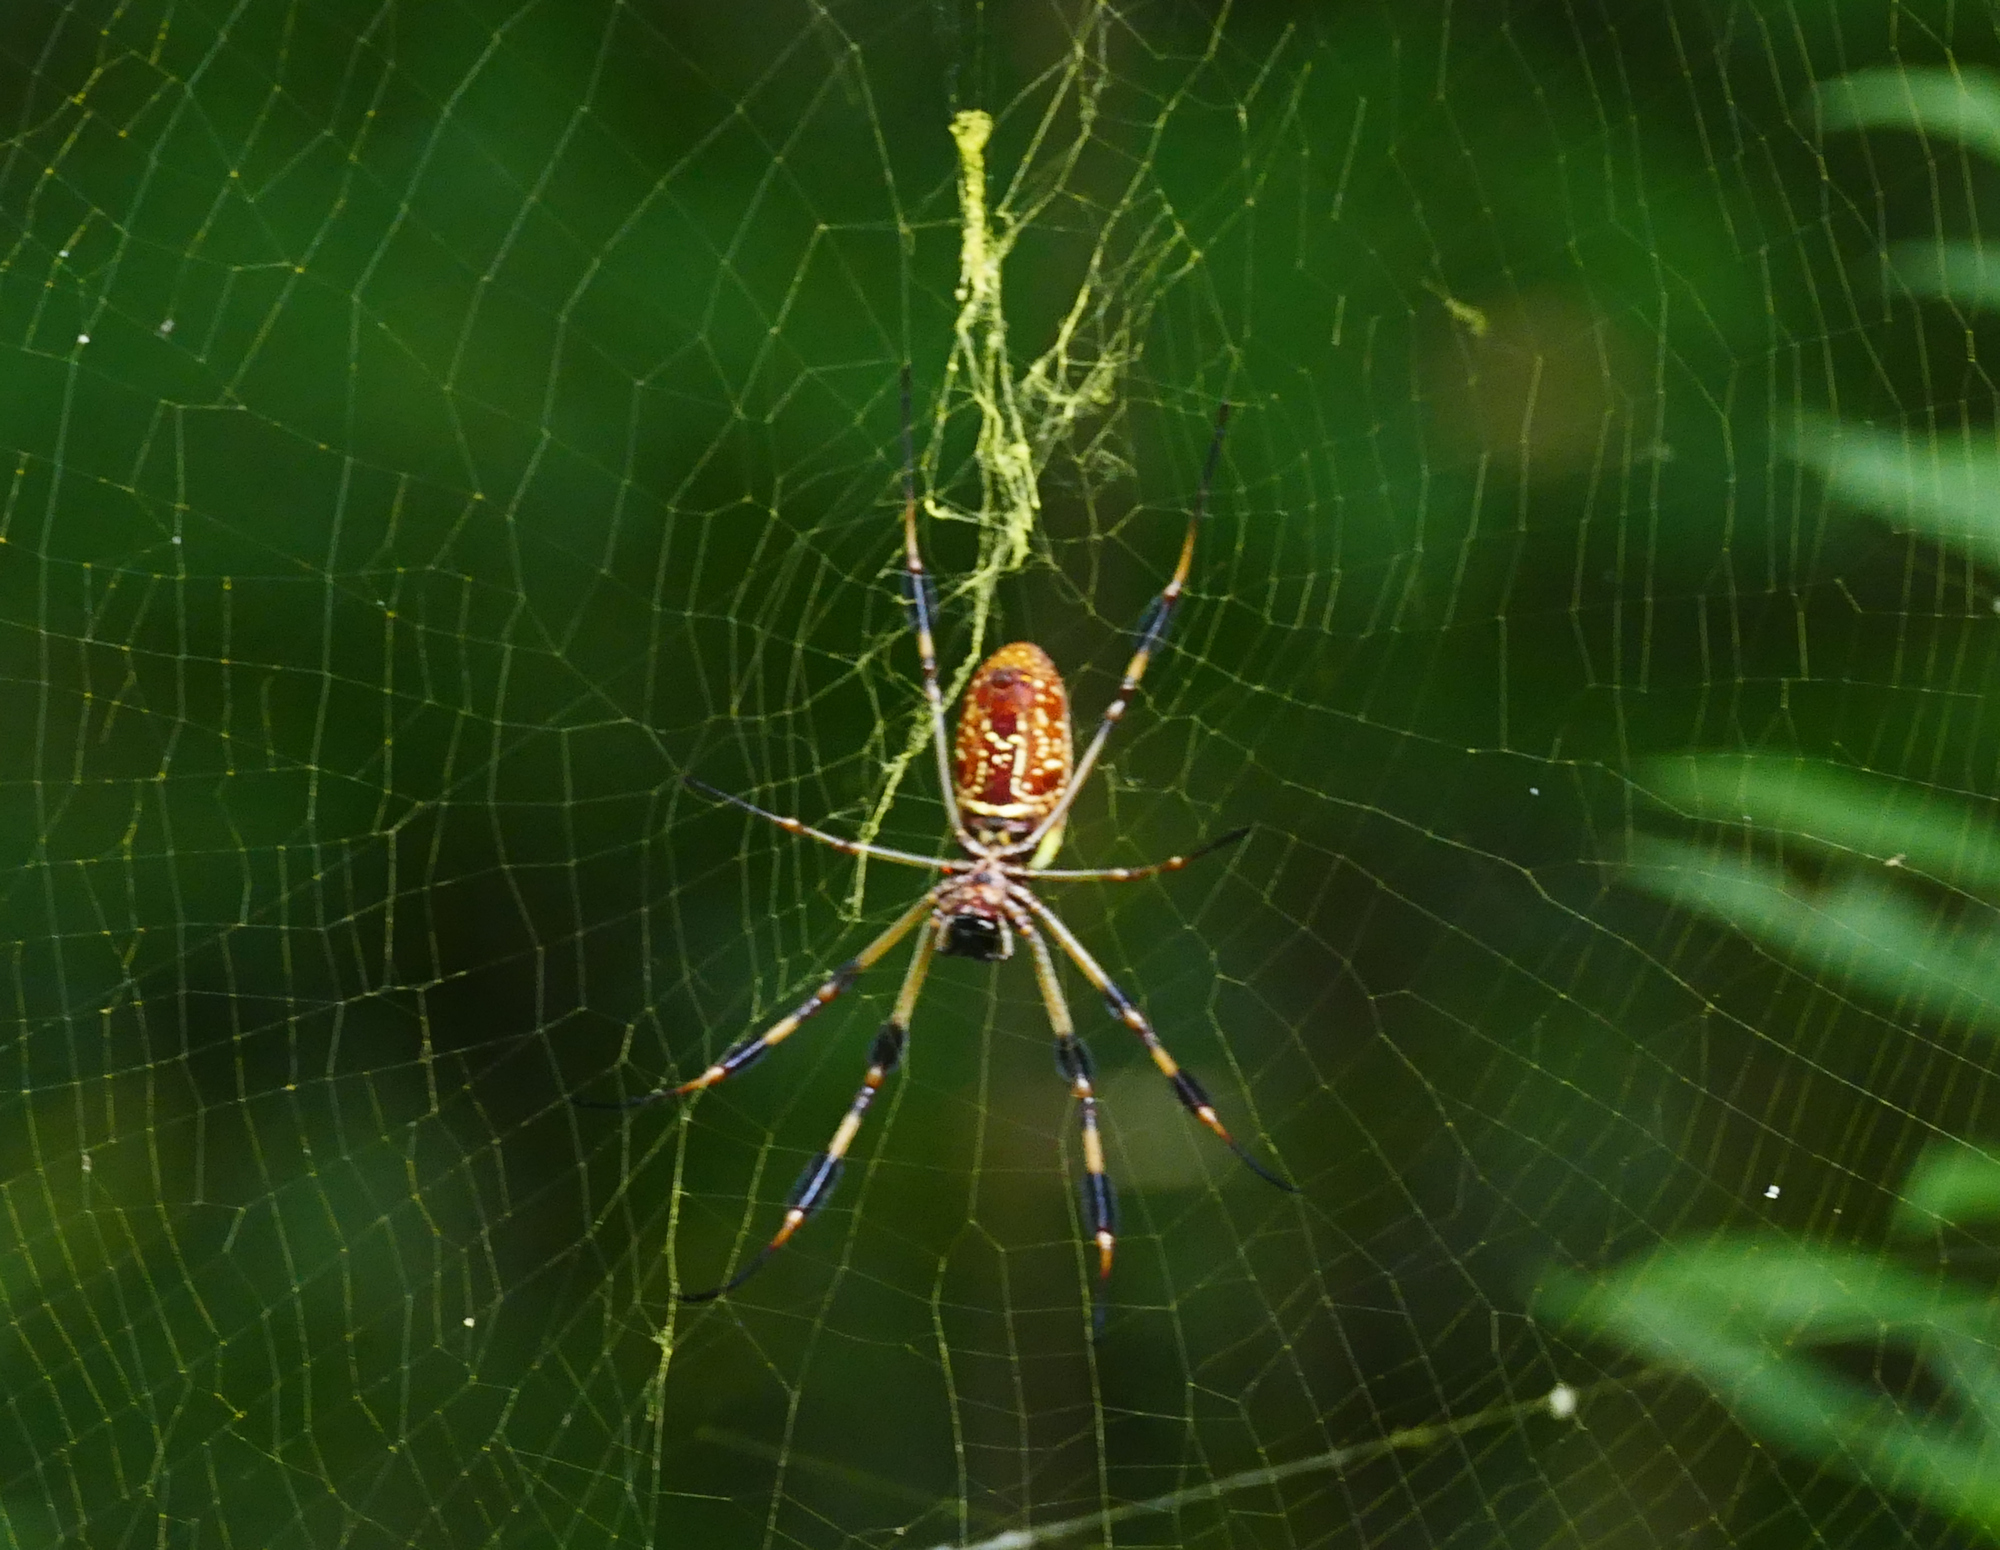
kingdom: Animalia
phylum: Arthropoda
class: Arachnida
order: Araneae
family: Araneidae
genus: Trichonephila
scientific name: Trichonephila clavipes
